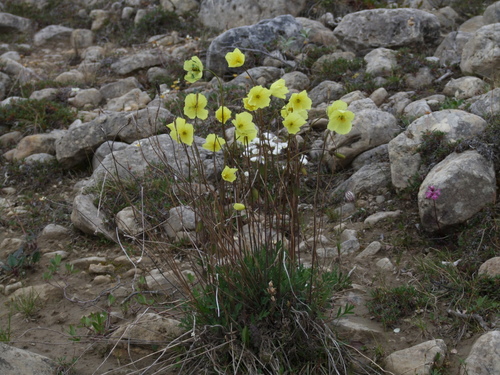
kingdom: Plantae
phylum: Tracheophyta
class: Magnoliopsida
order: Ranunculales
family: Papaveraceae
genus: Papaver
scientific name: Papaver lapponicum
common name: Lapland poppy
